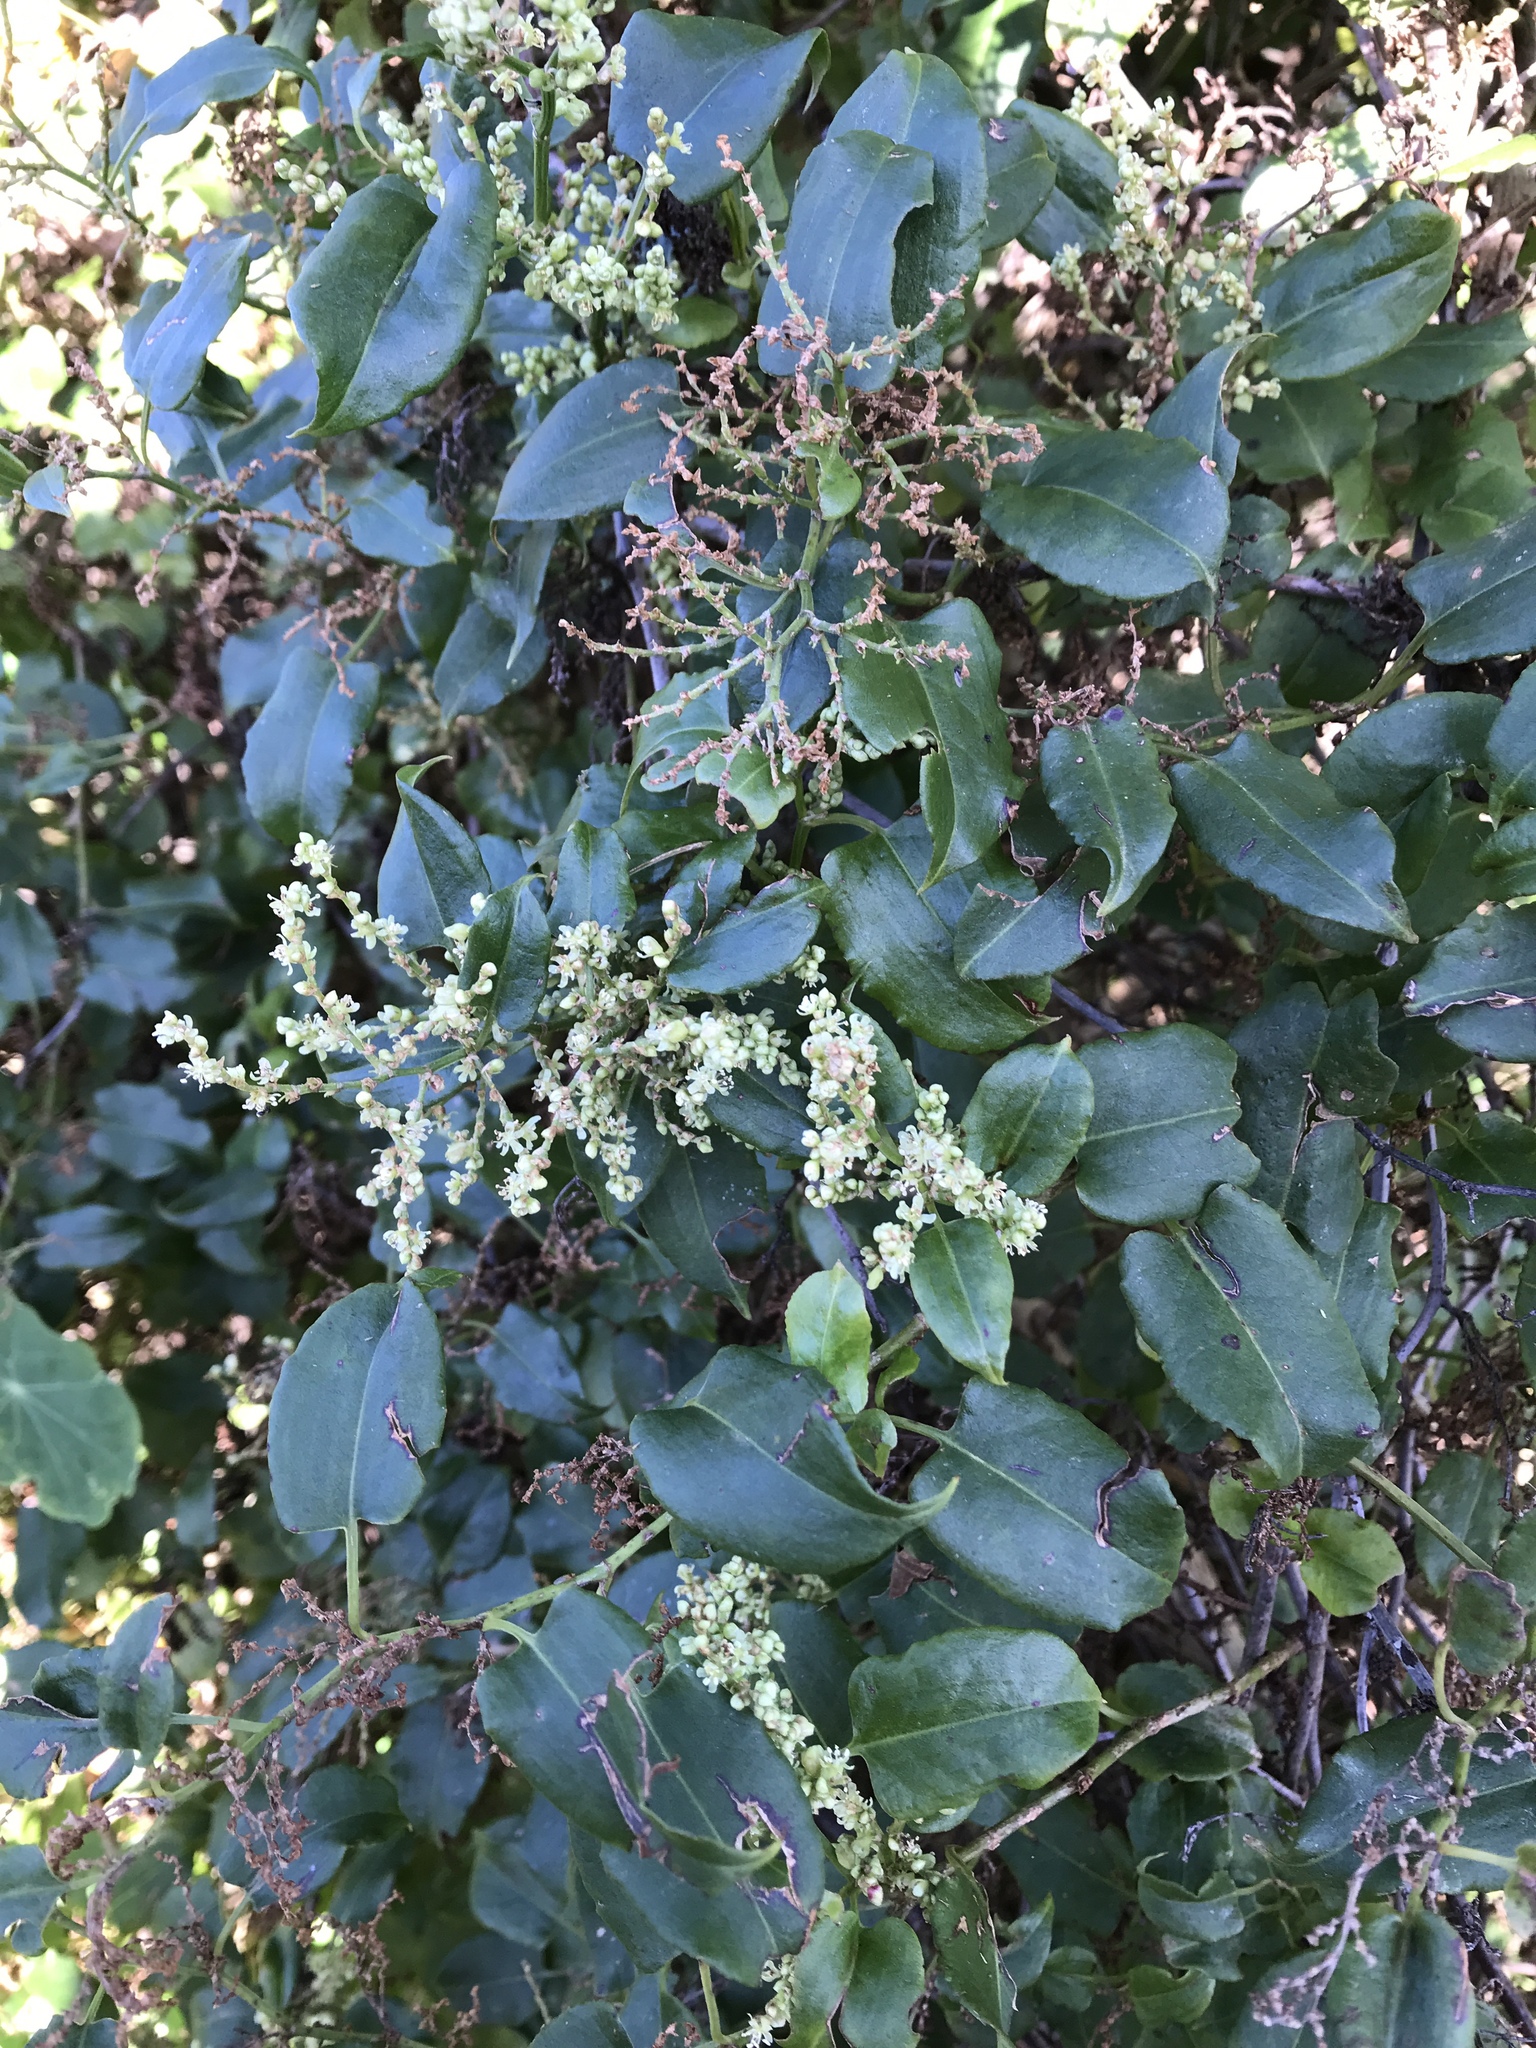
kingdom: Plantae
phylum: Tracheophyta
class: Magnoliopsida
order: Caryophyllales
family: Polygonaceae
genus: Muehlenbeckia
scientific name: Muehlenbeckia australis
